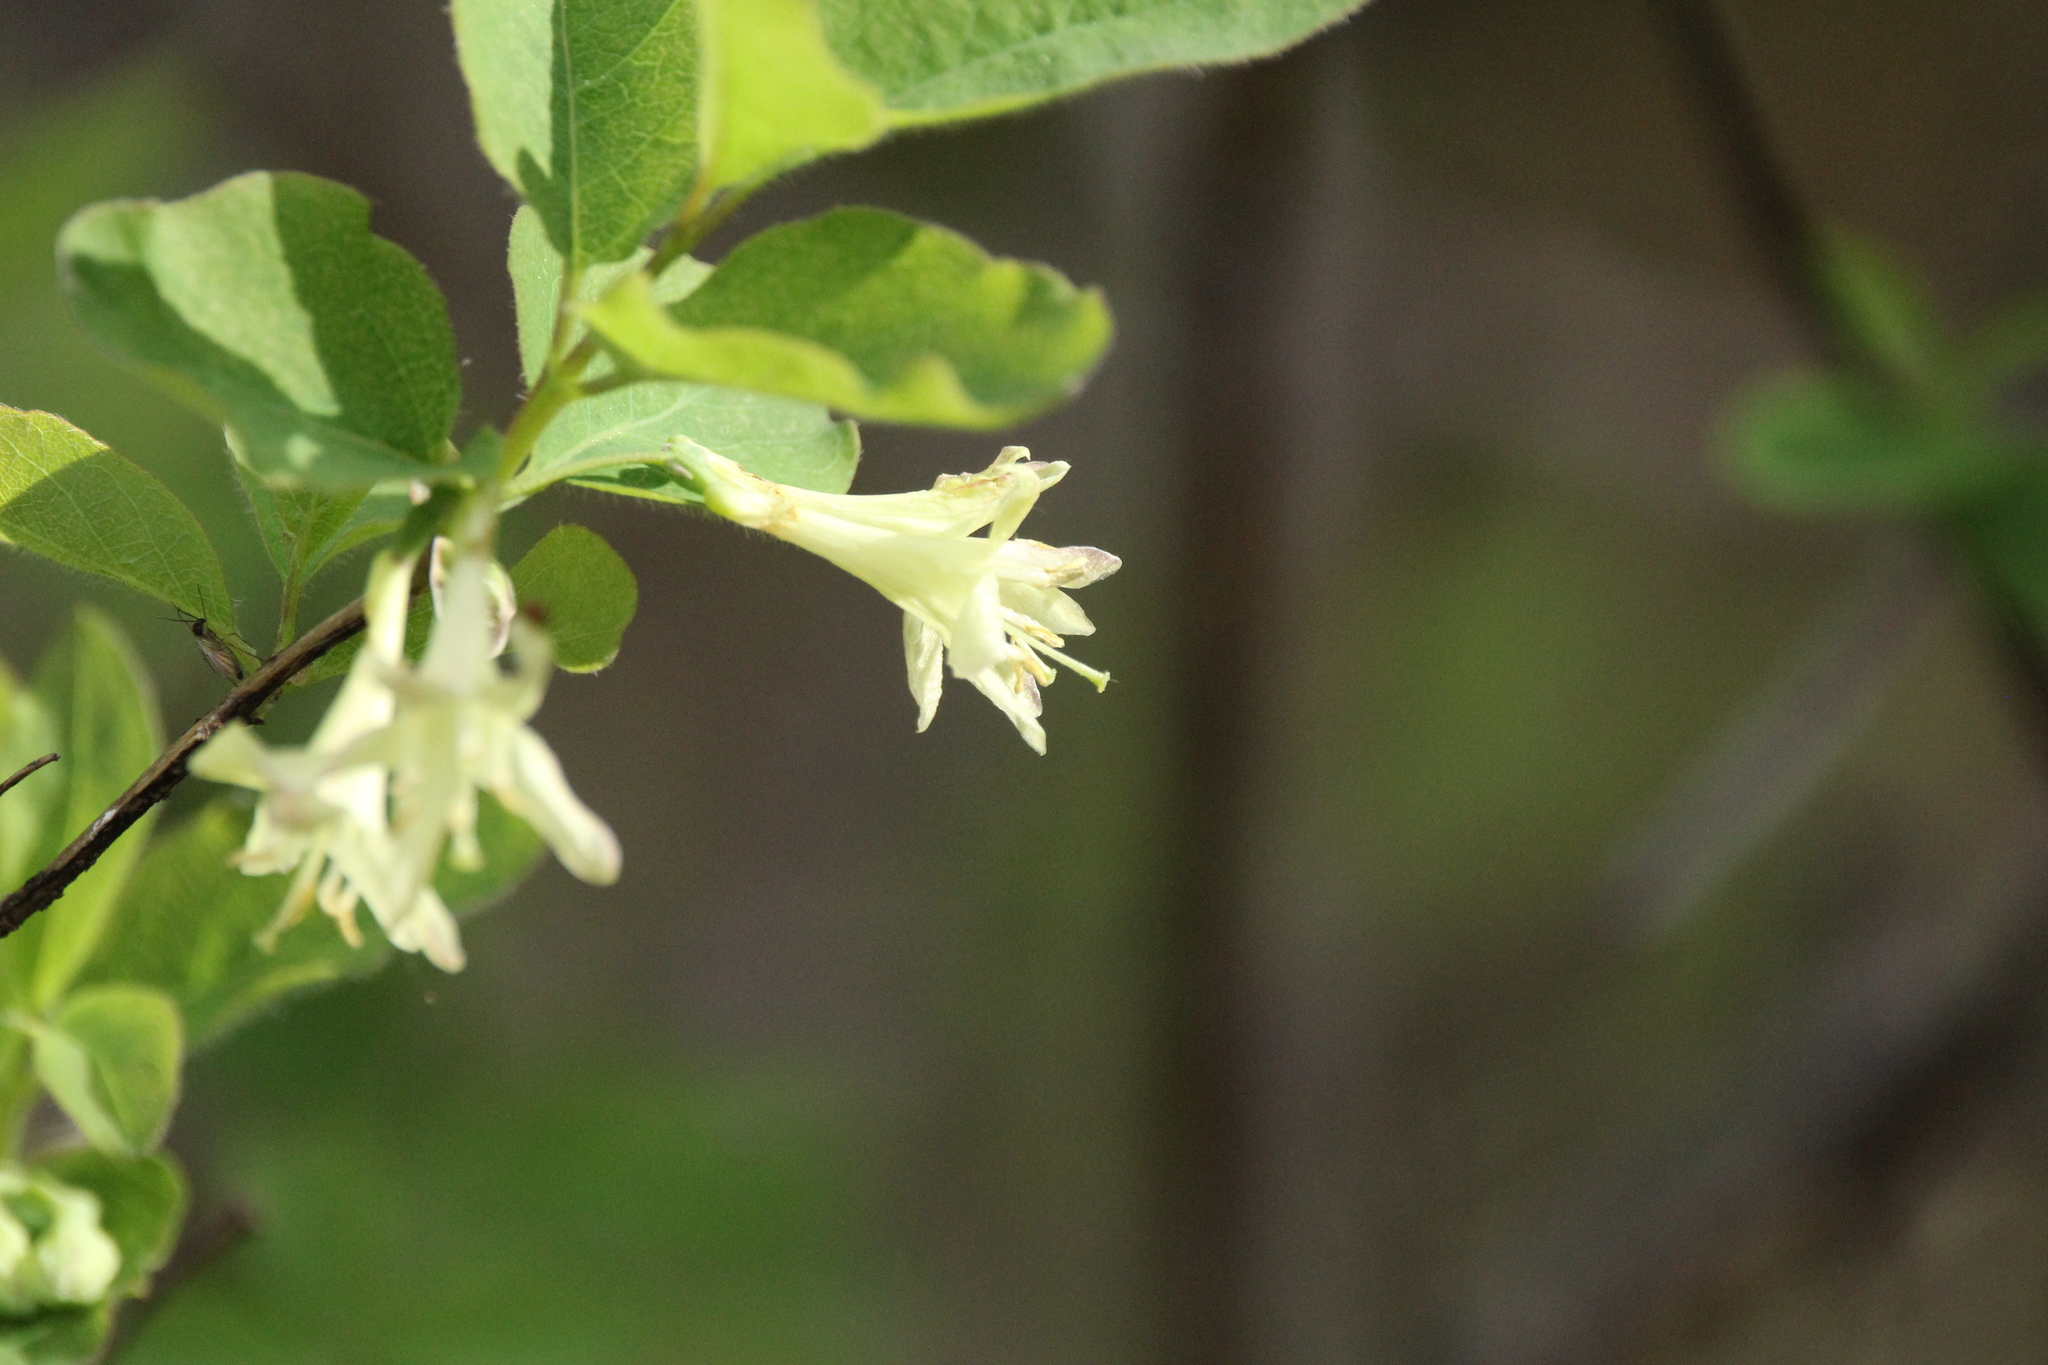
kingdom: Plantae
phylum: Tracheophyta
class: Magnoliopsida
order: Dipsacales
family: Caprifoliaceae
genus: Lonicera
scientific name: Lonicera utahensis
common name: Utah honeysuckle
